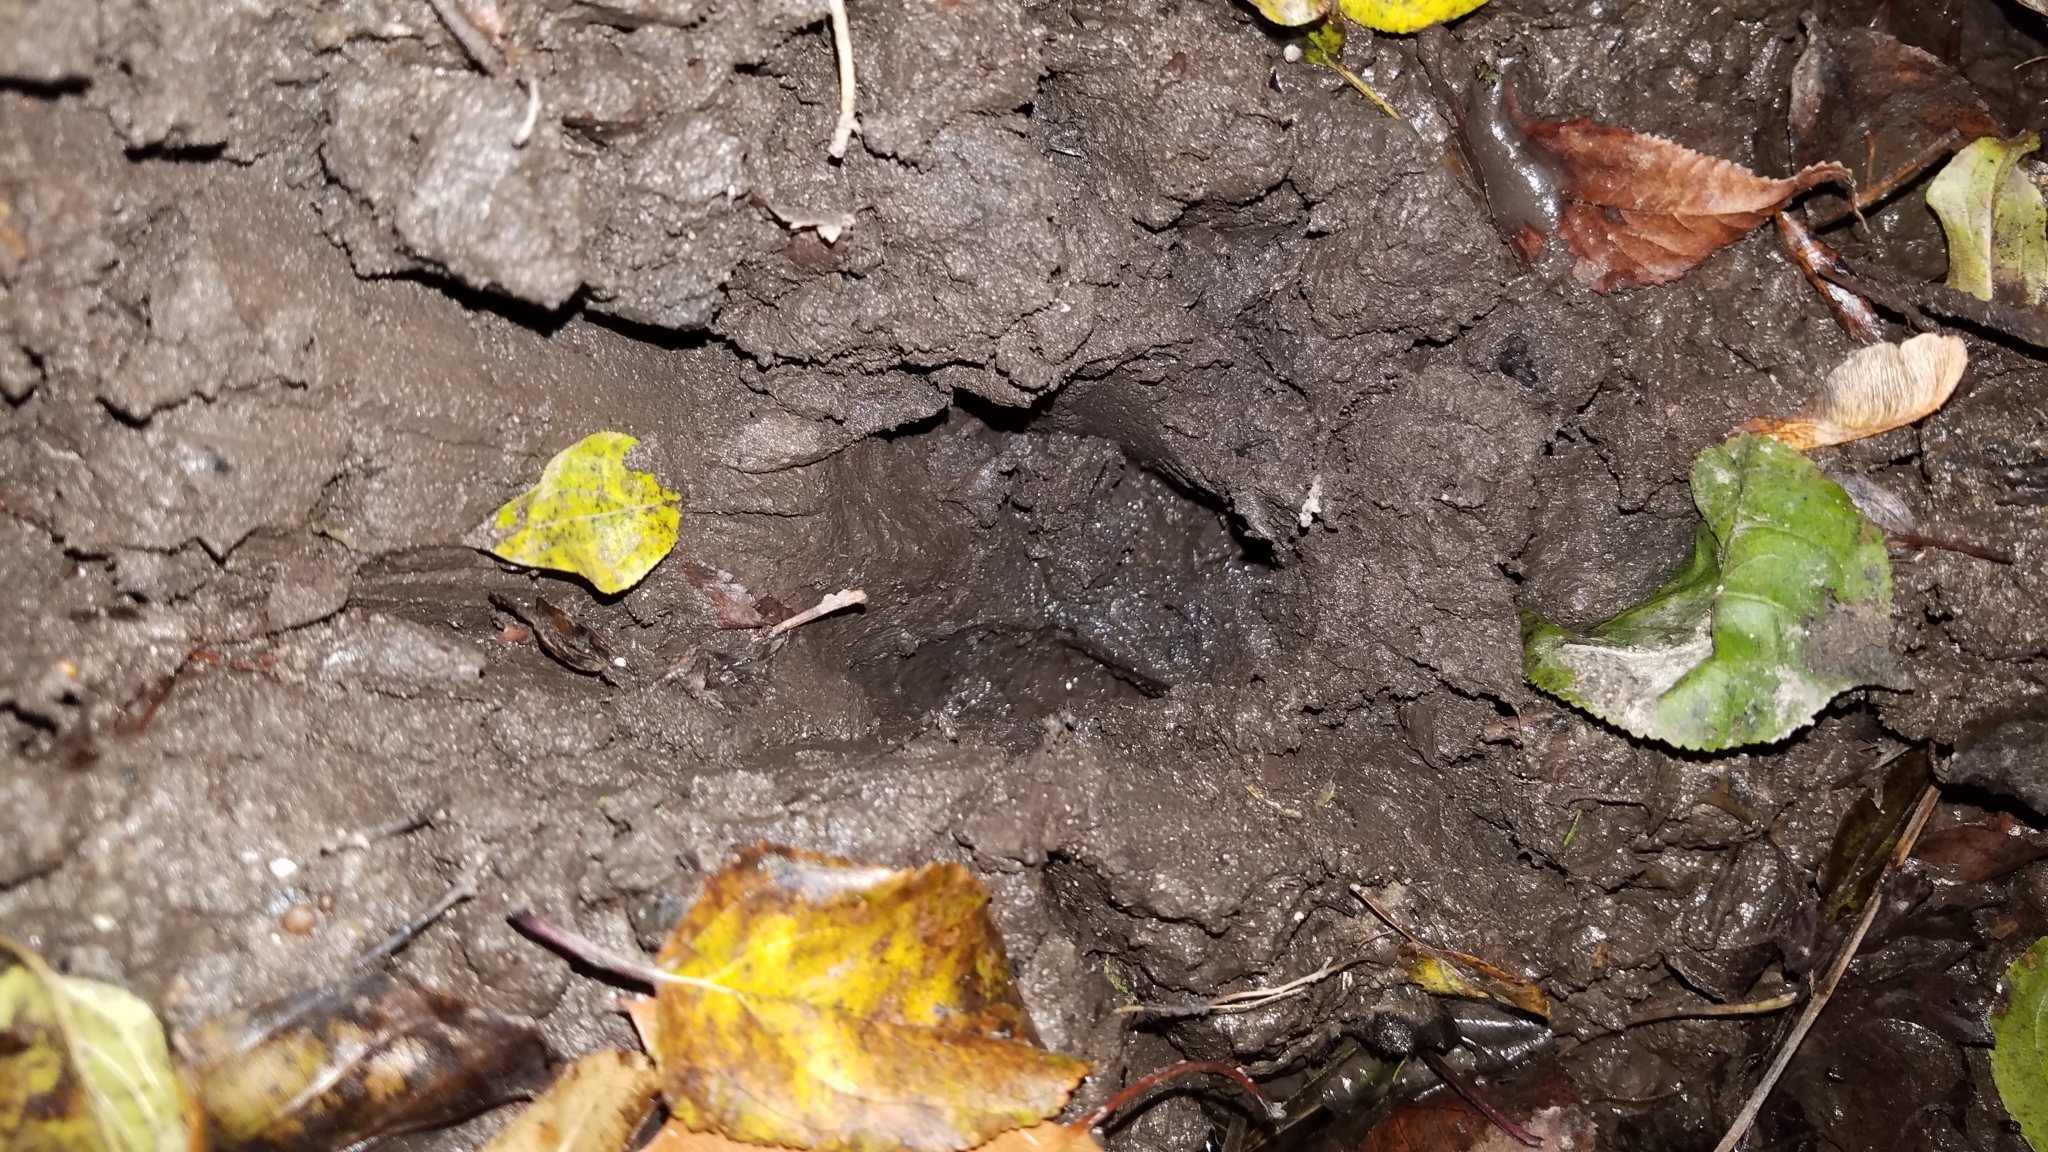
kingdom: Animalia
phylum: Chordata
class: Mammalia
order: Artiodactyla
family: Cervidae
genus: Odocoileus
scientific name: Odocoileus virginianus
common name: White-tailed deer
